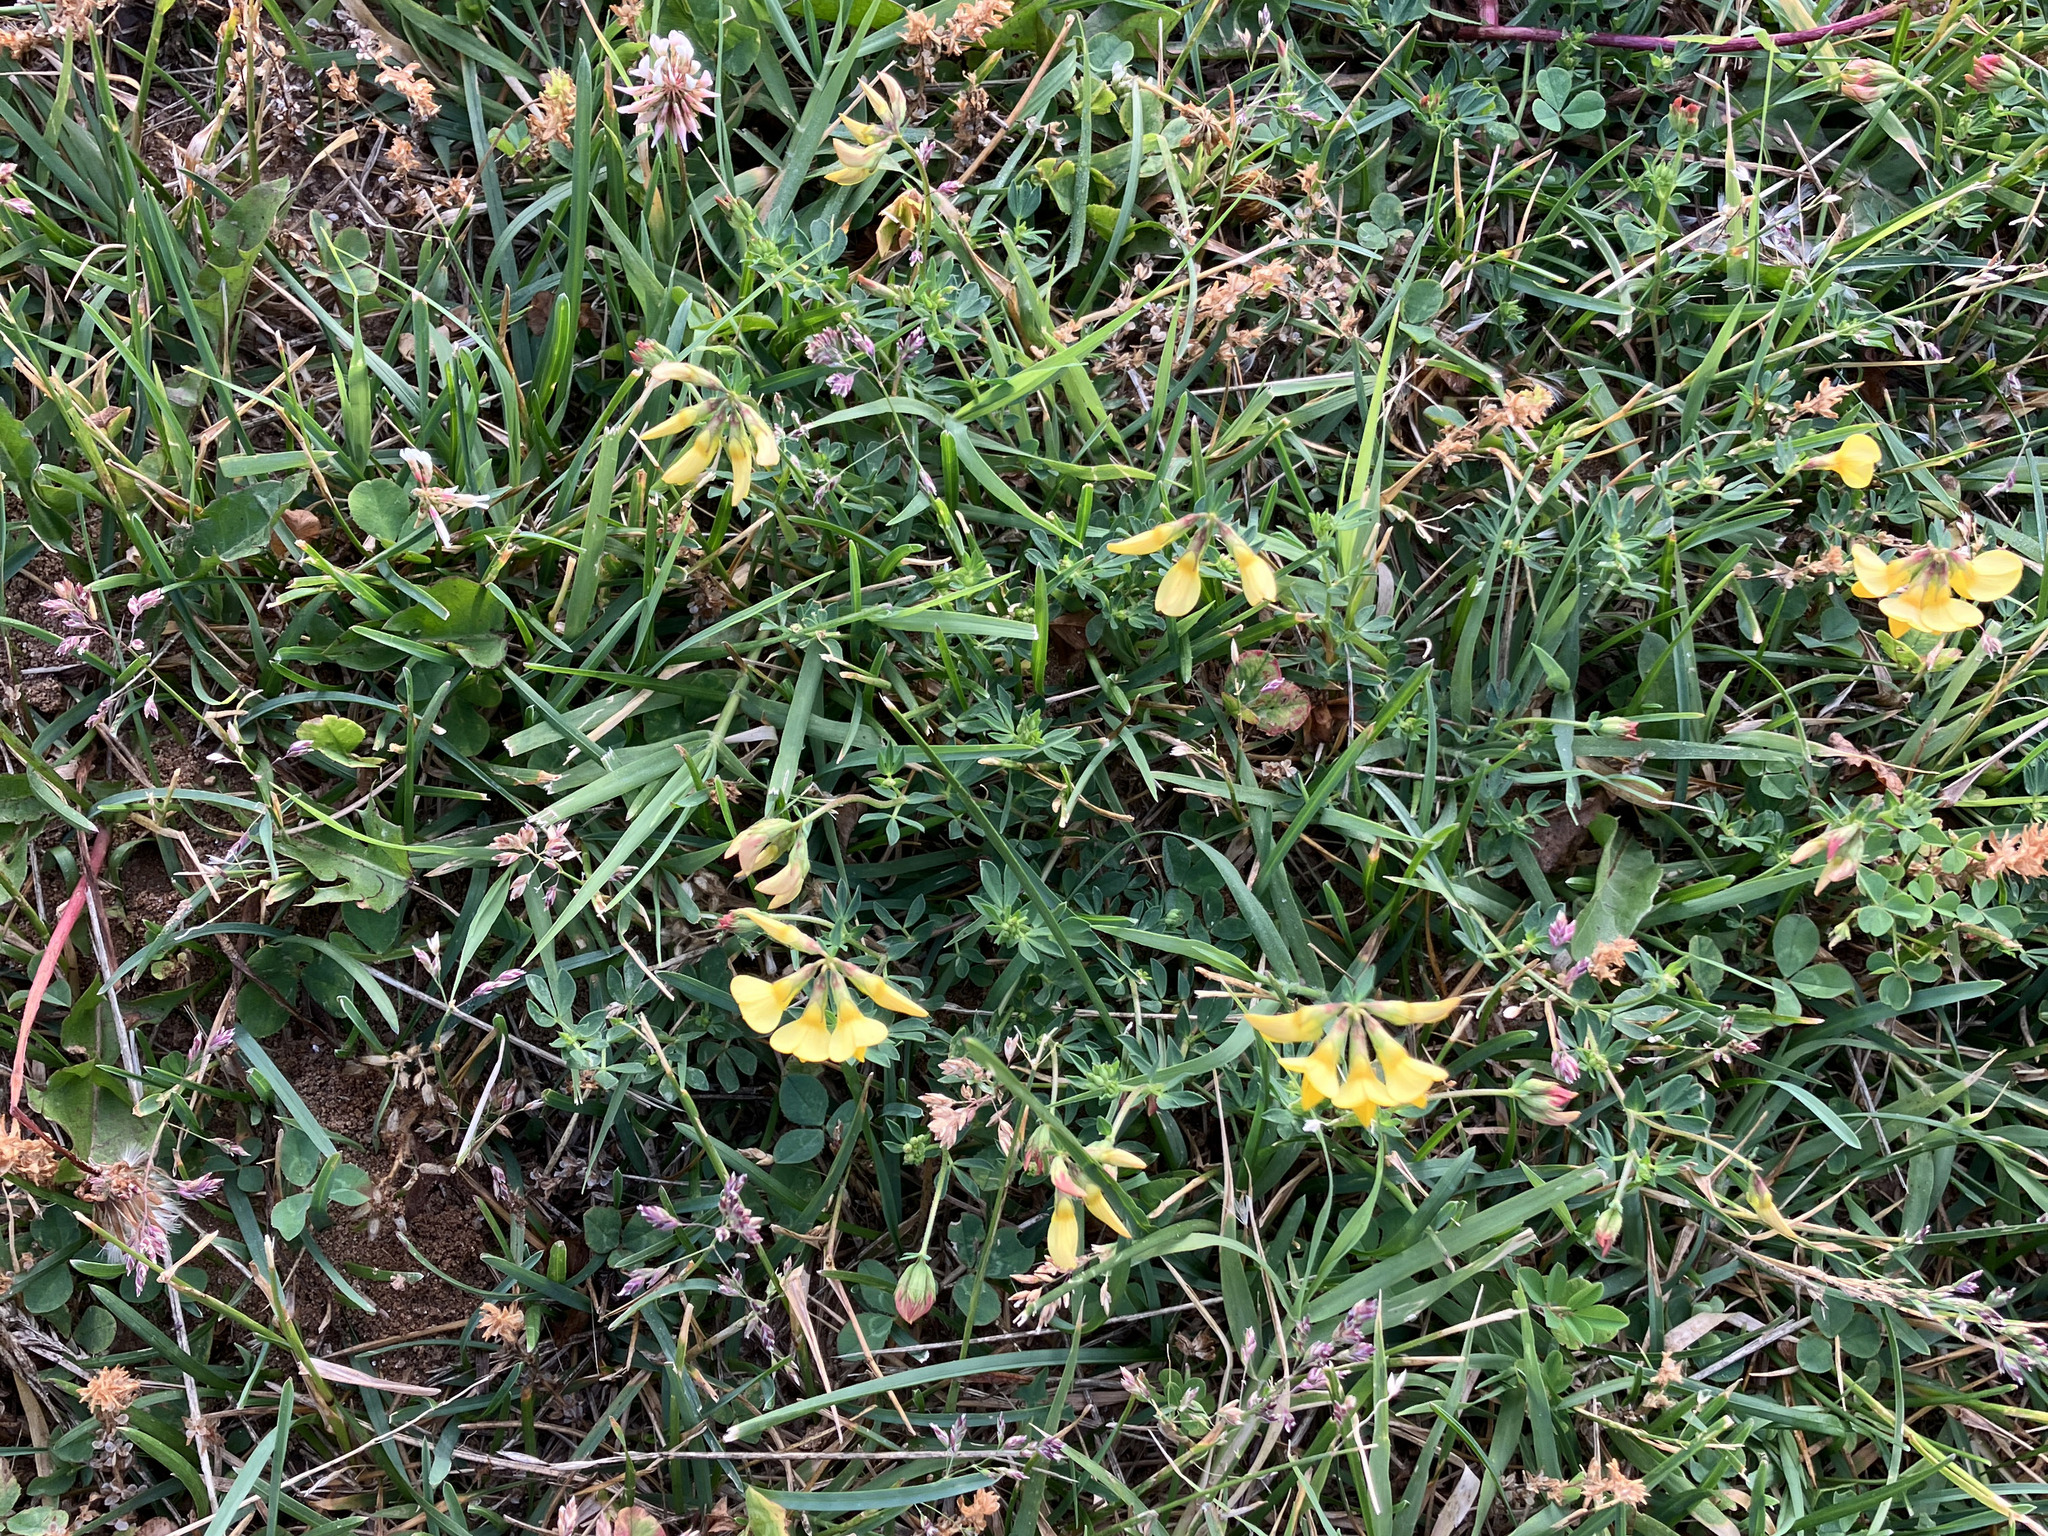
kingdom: Plantae
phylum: Tracheophyta
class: Magnoliopsida
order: Fabales
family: Fabaceae
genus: Lotus
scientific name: Lotus corniculatus
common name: Common bird's-foot-trefoil
